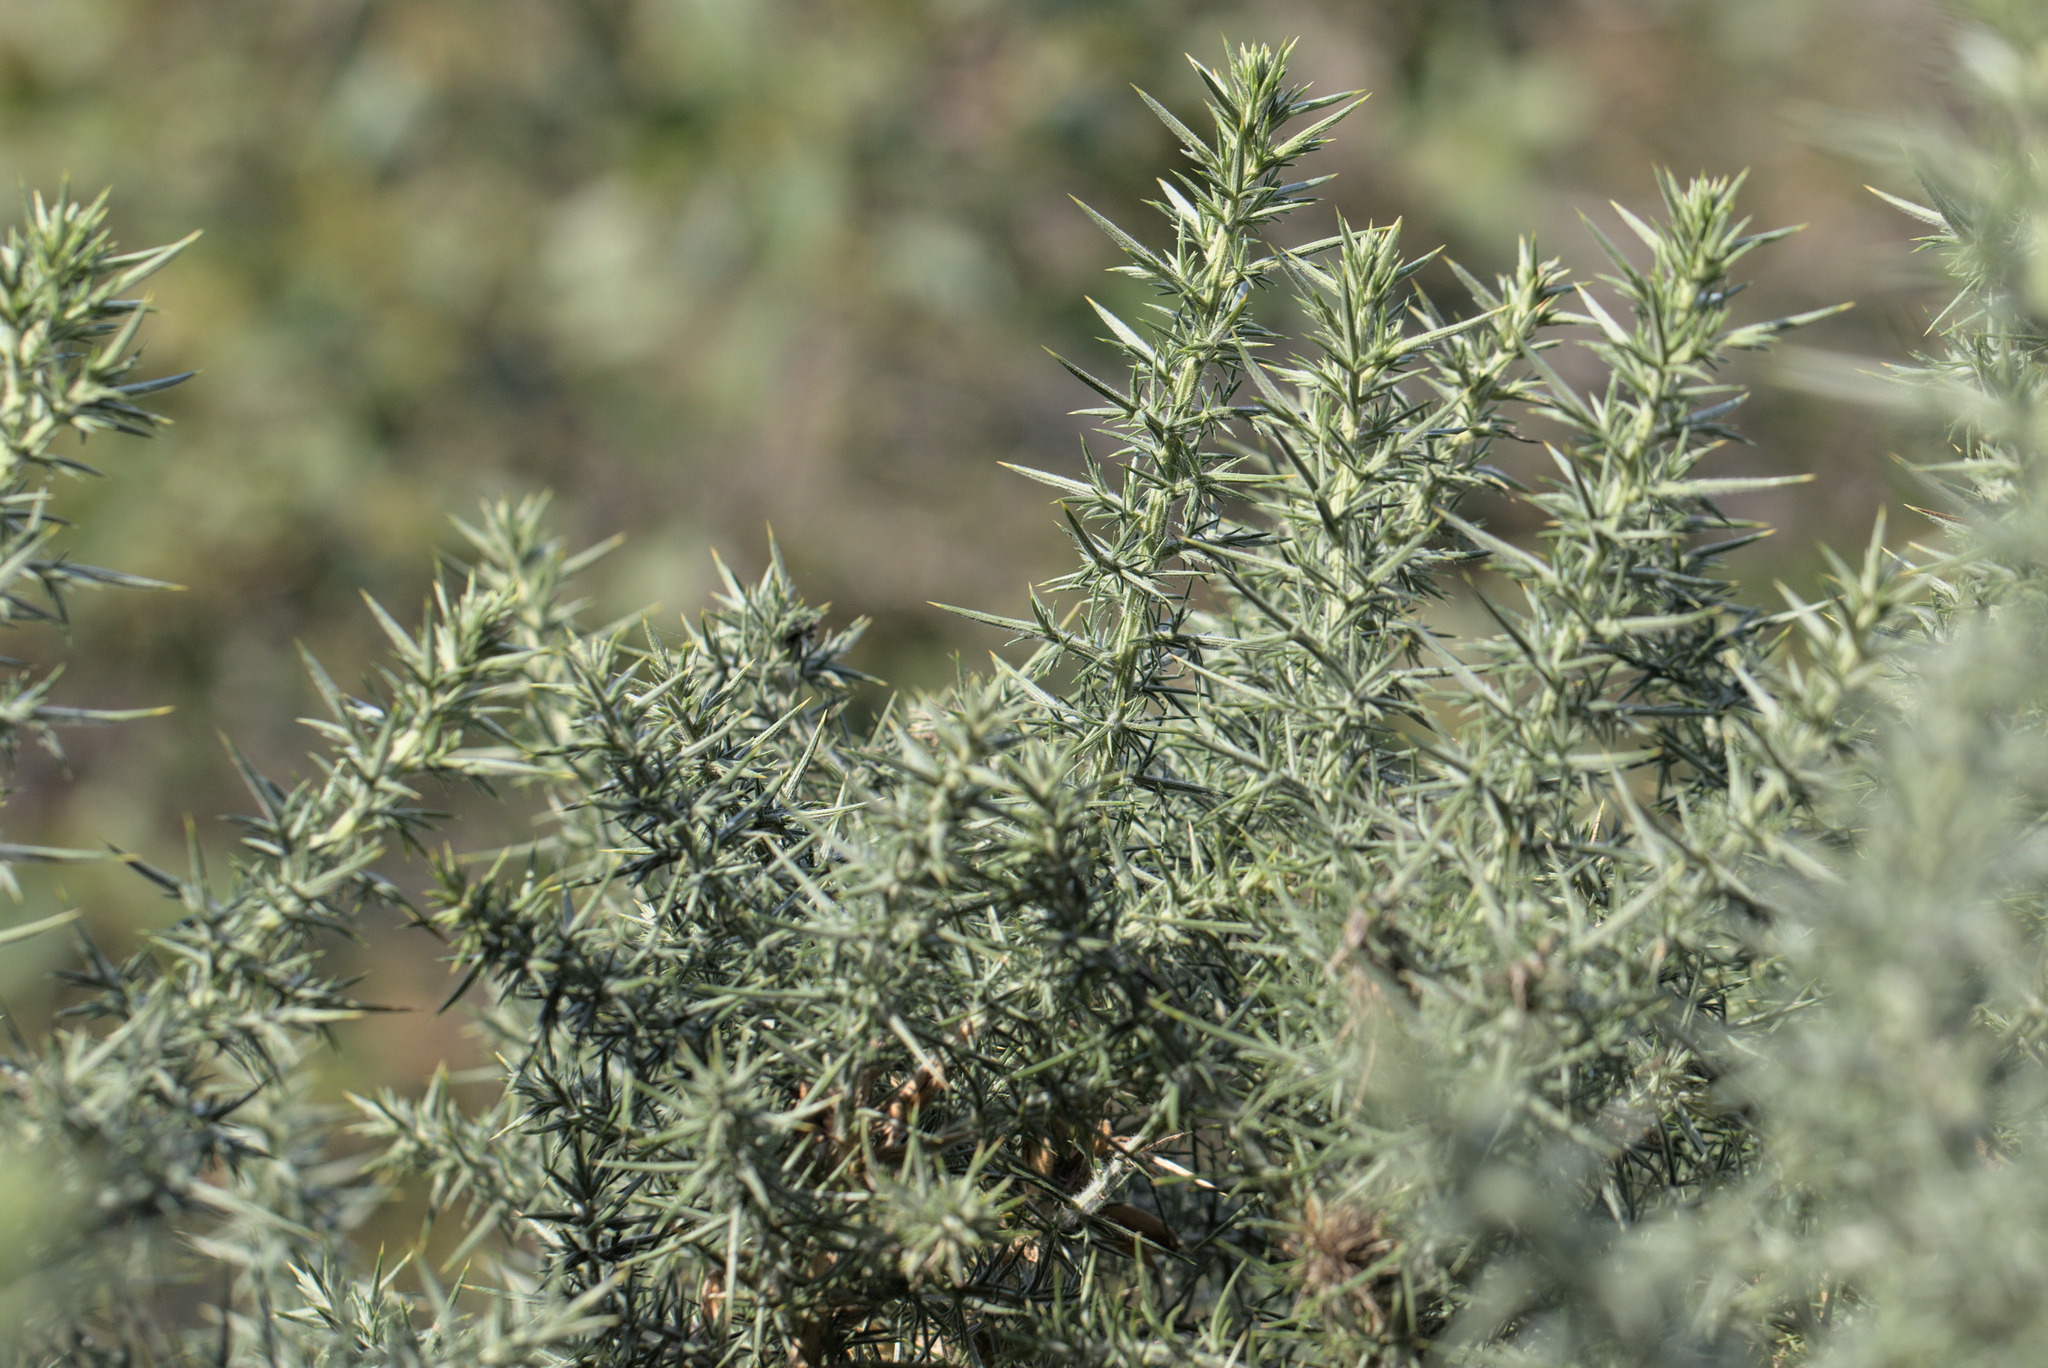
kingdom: Plantae
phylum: Tracheophyta
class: Magnoliopsida
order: Fabales
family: Fabaceae
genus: Ulex
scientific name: Ulex europaeus
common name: Common gorse
